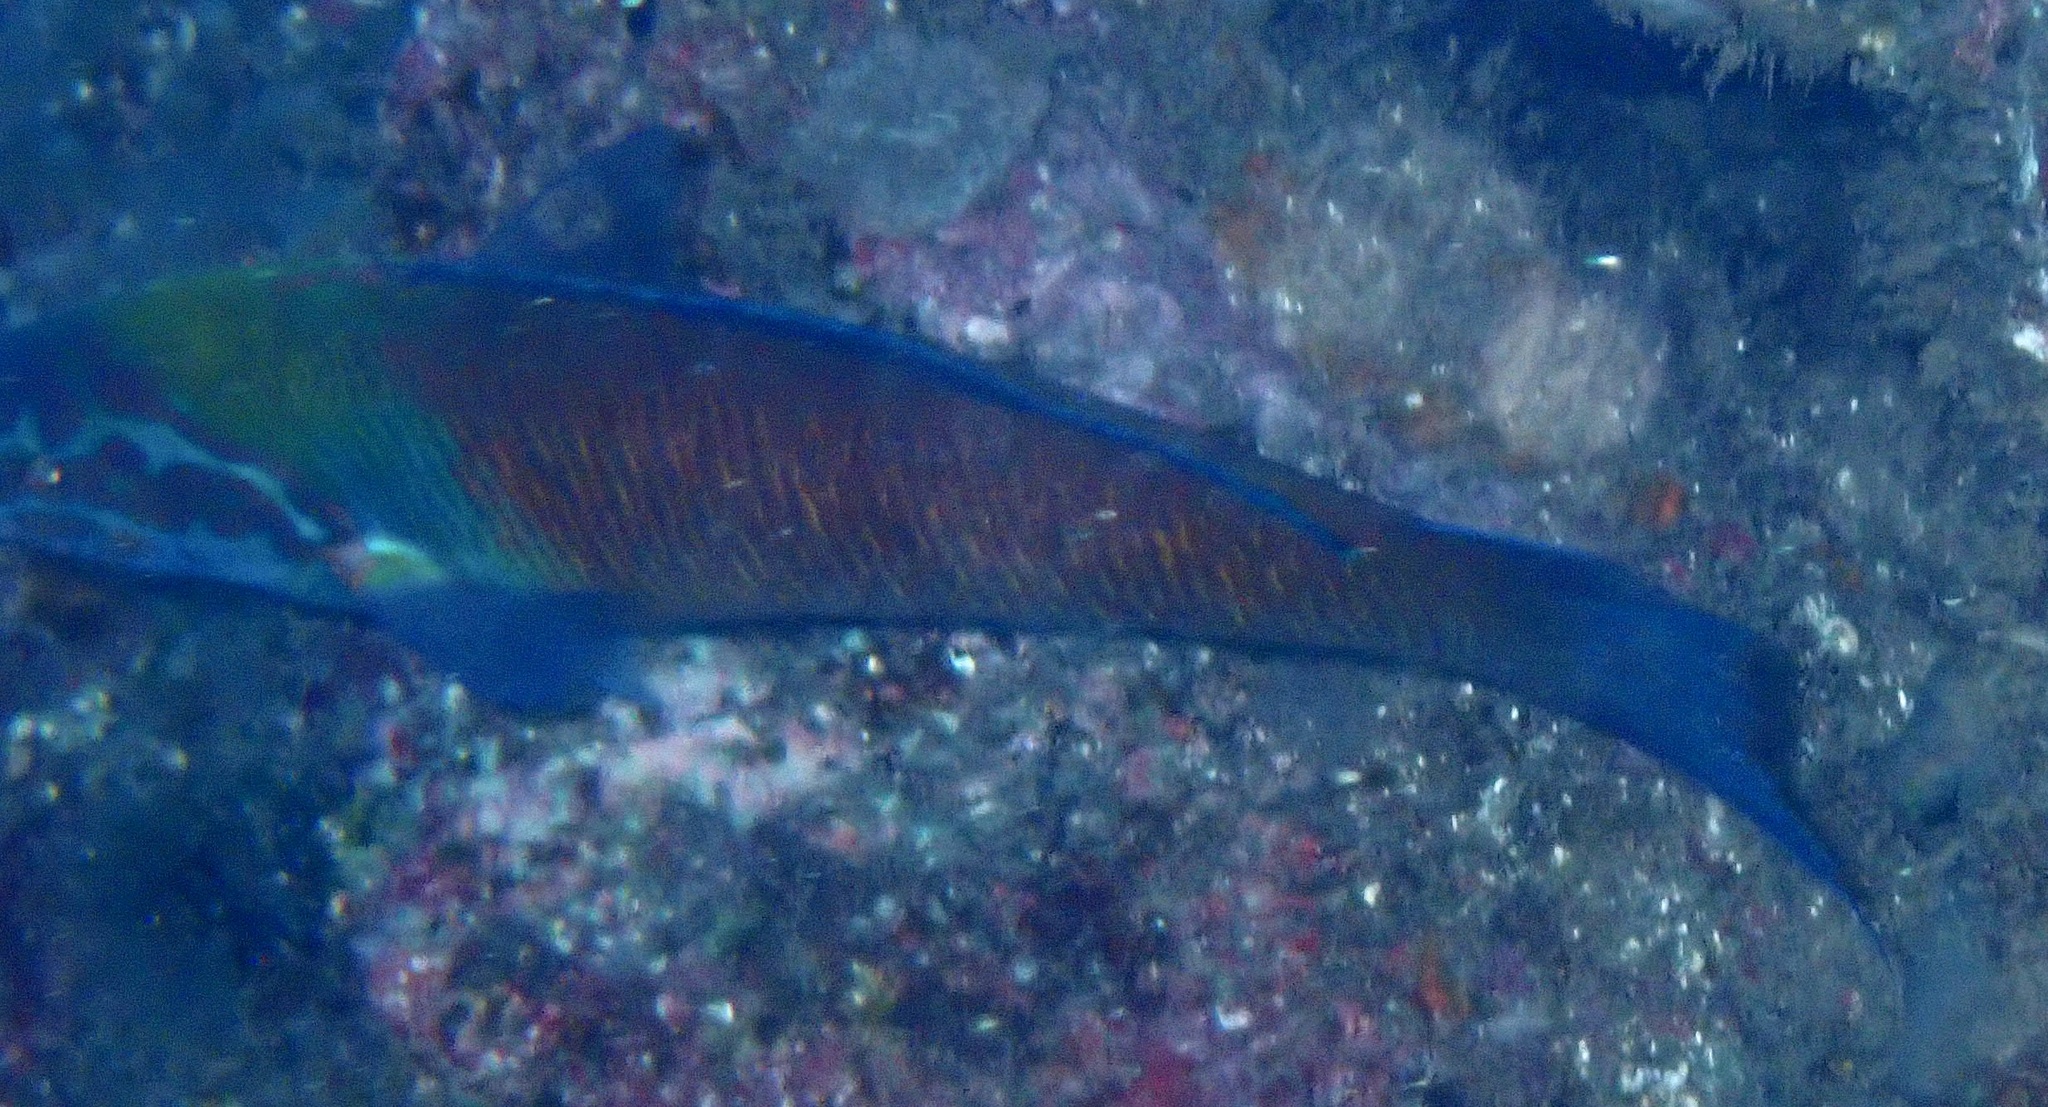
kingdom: Animalia
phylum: Chordata
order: Perciformes
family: Labridae
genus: Thalassoma
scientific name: Thalassoma pavo
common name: Ornate wrasse
